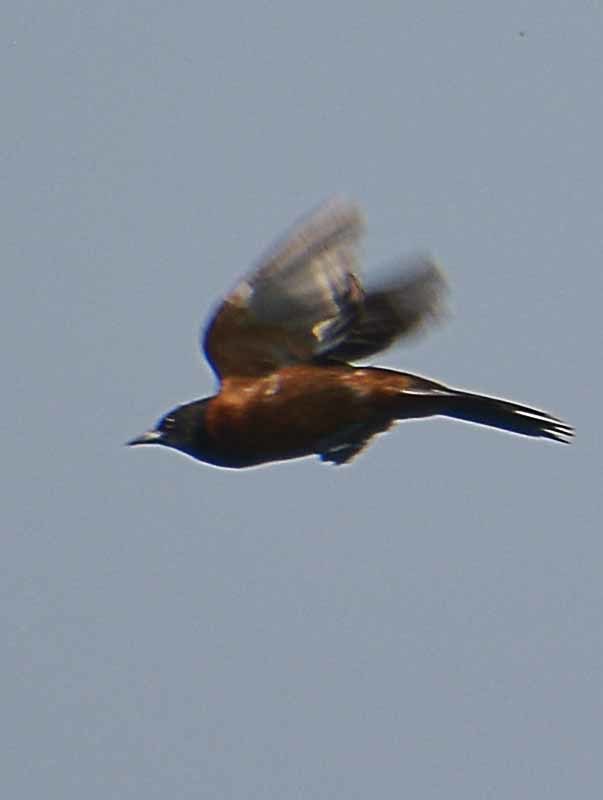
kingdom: Animalia
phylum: Chordata
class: Aves
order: Passeriformes
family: Icteridae
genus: Icterus
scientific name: Icterus spurius
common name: Orchard oriole
